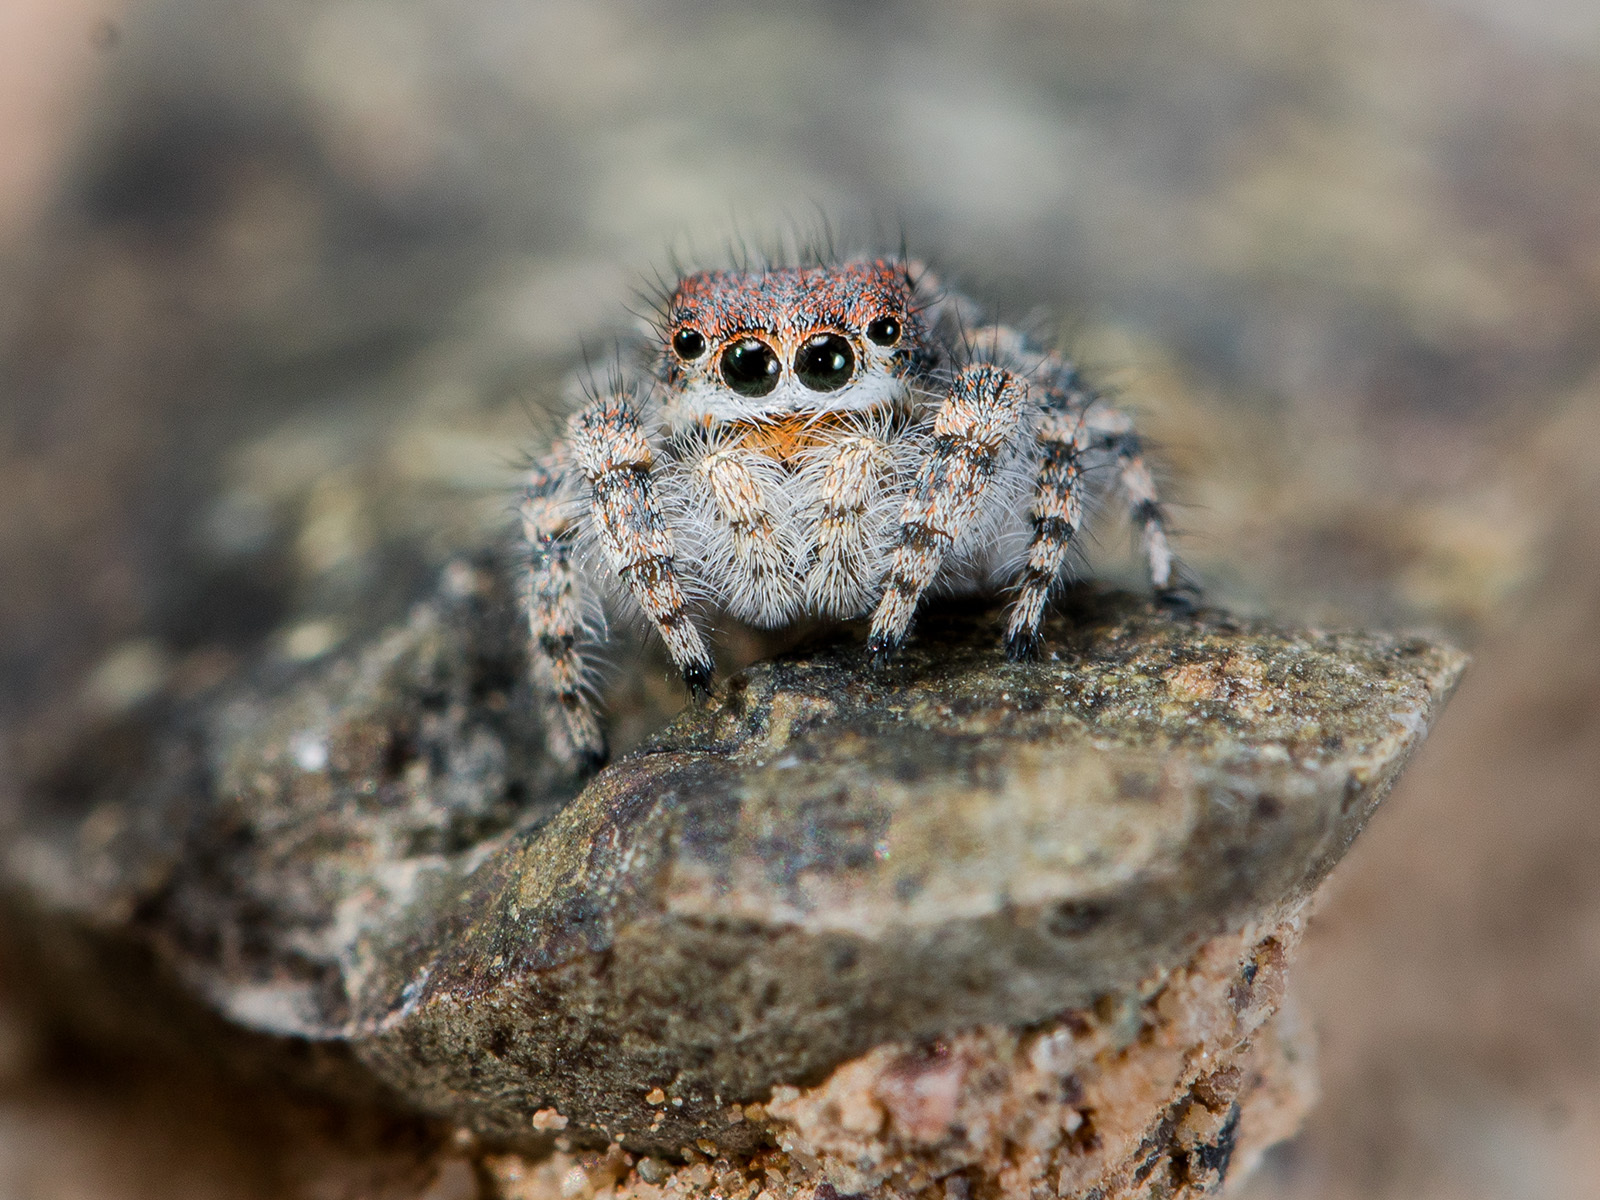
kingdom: Animalia
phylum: Arthropoda
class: Arachnida
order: Araneae
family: Salticidae
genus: Yllenus
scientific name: Yllenus zyuzini
